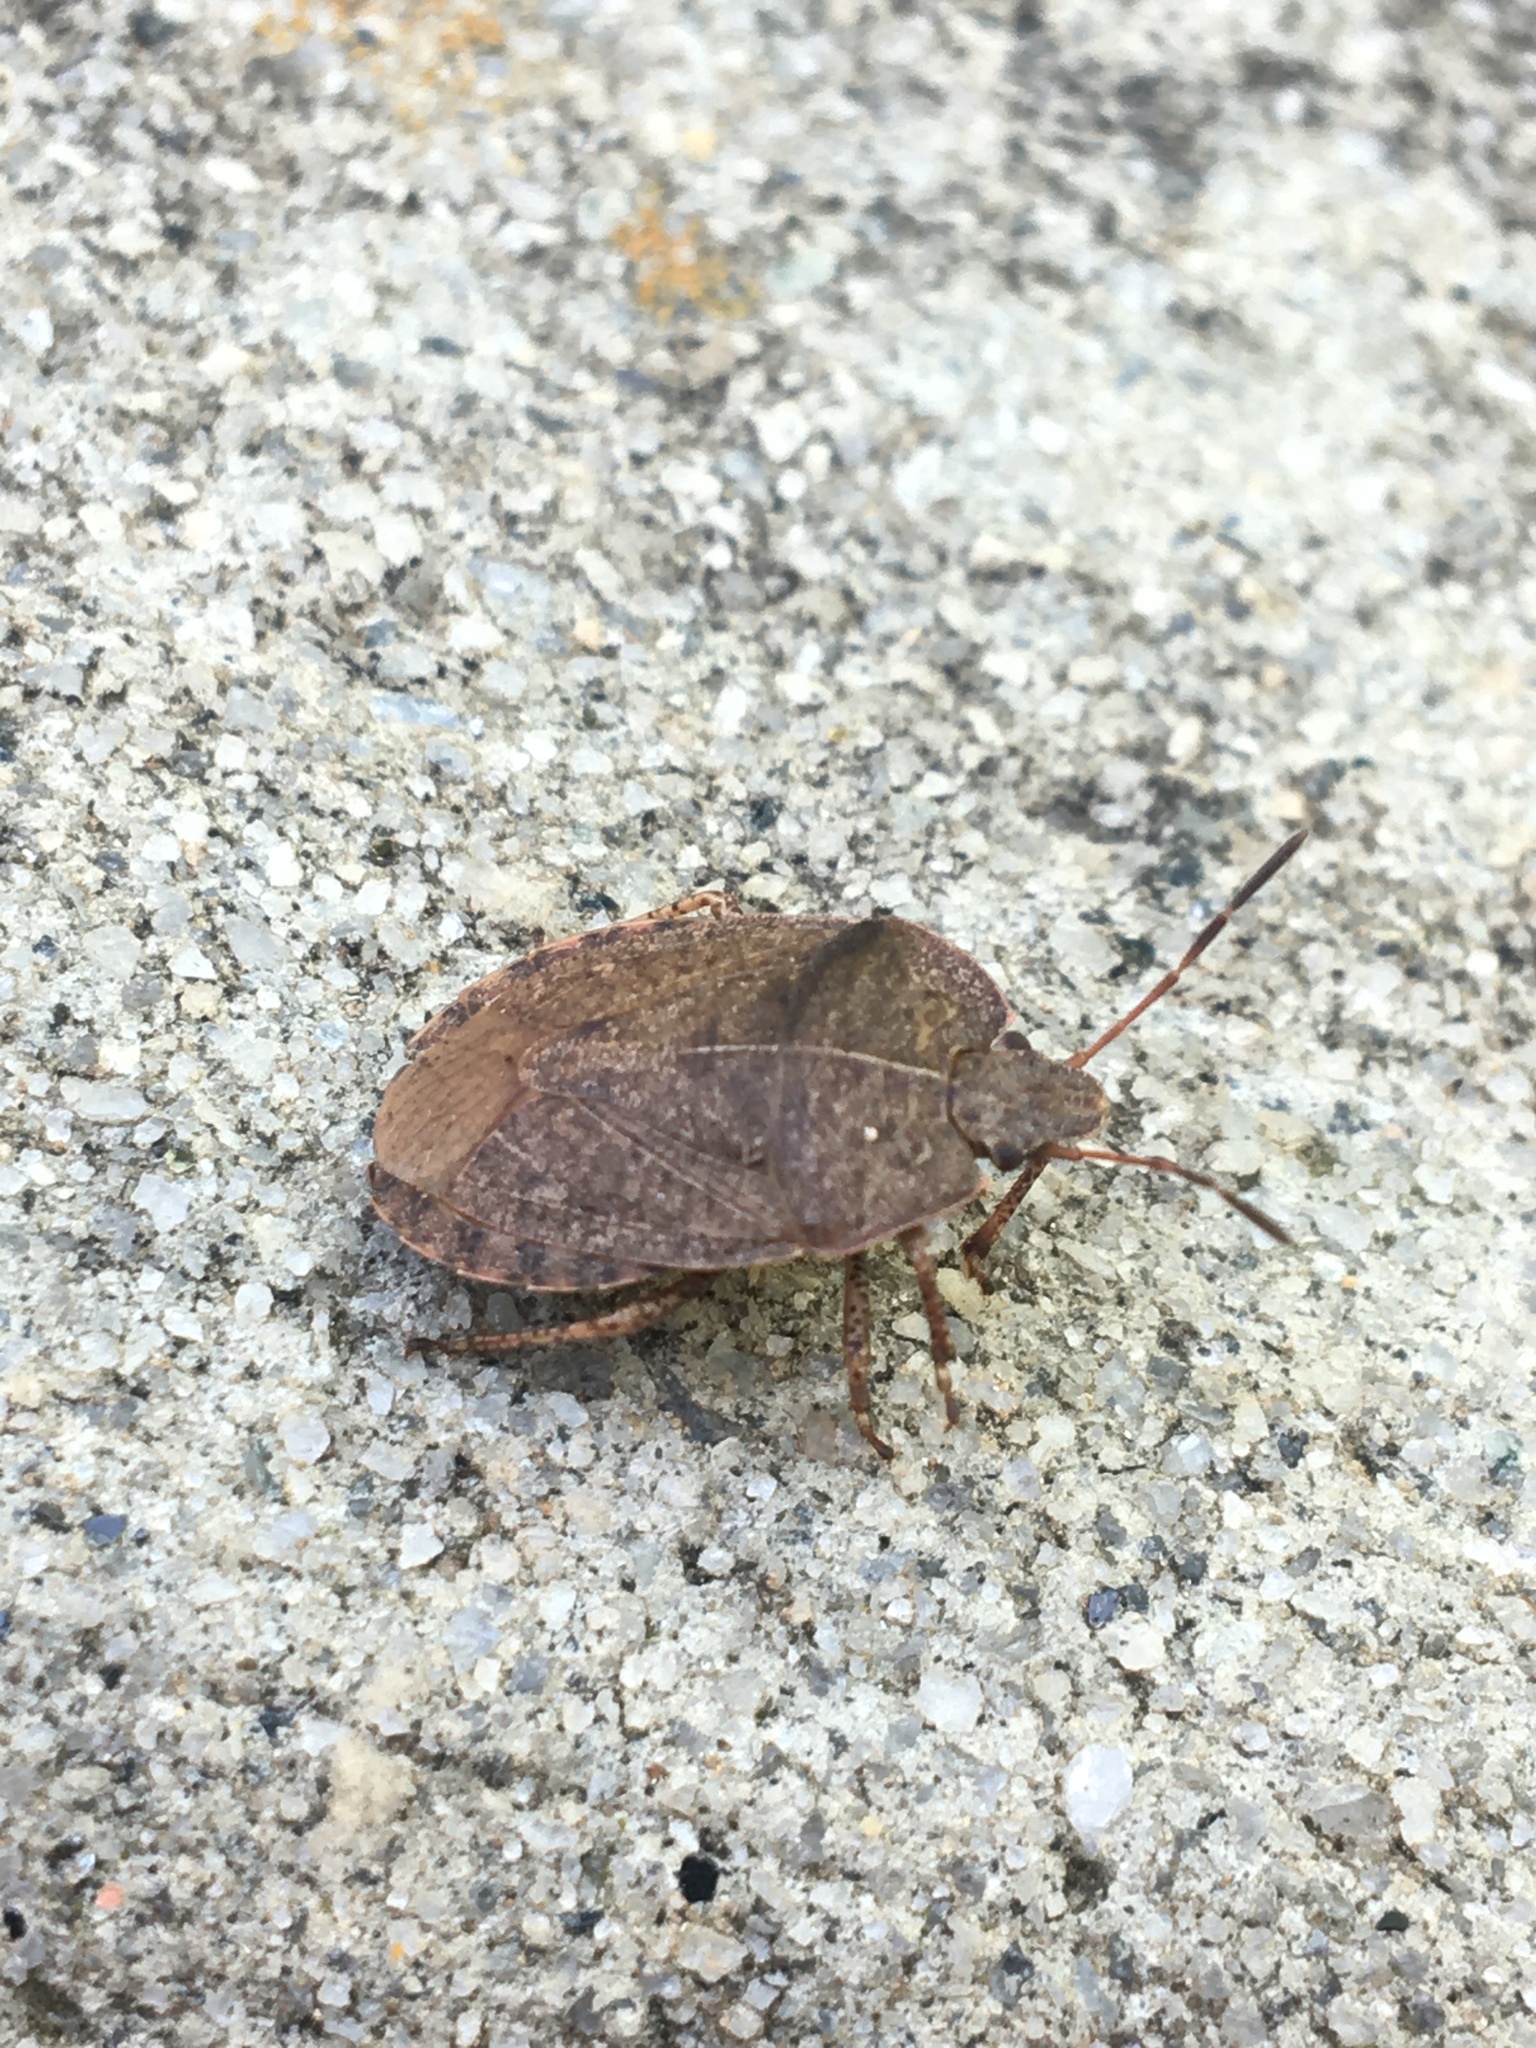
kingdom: Animalia
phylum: Arthropoda
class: Insecta
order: Hemiptera
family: Pentatomidae
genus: Menecles
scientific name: Menecles insertus
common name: Elf shoe stink bug
